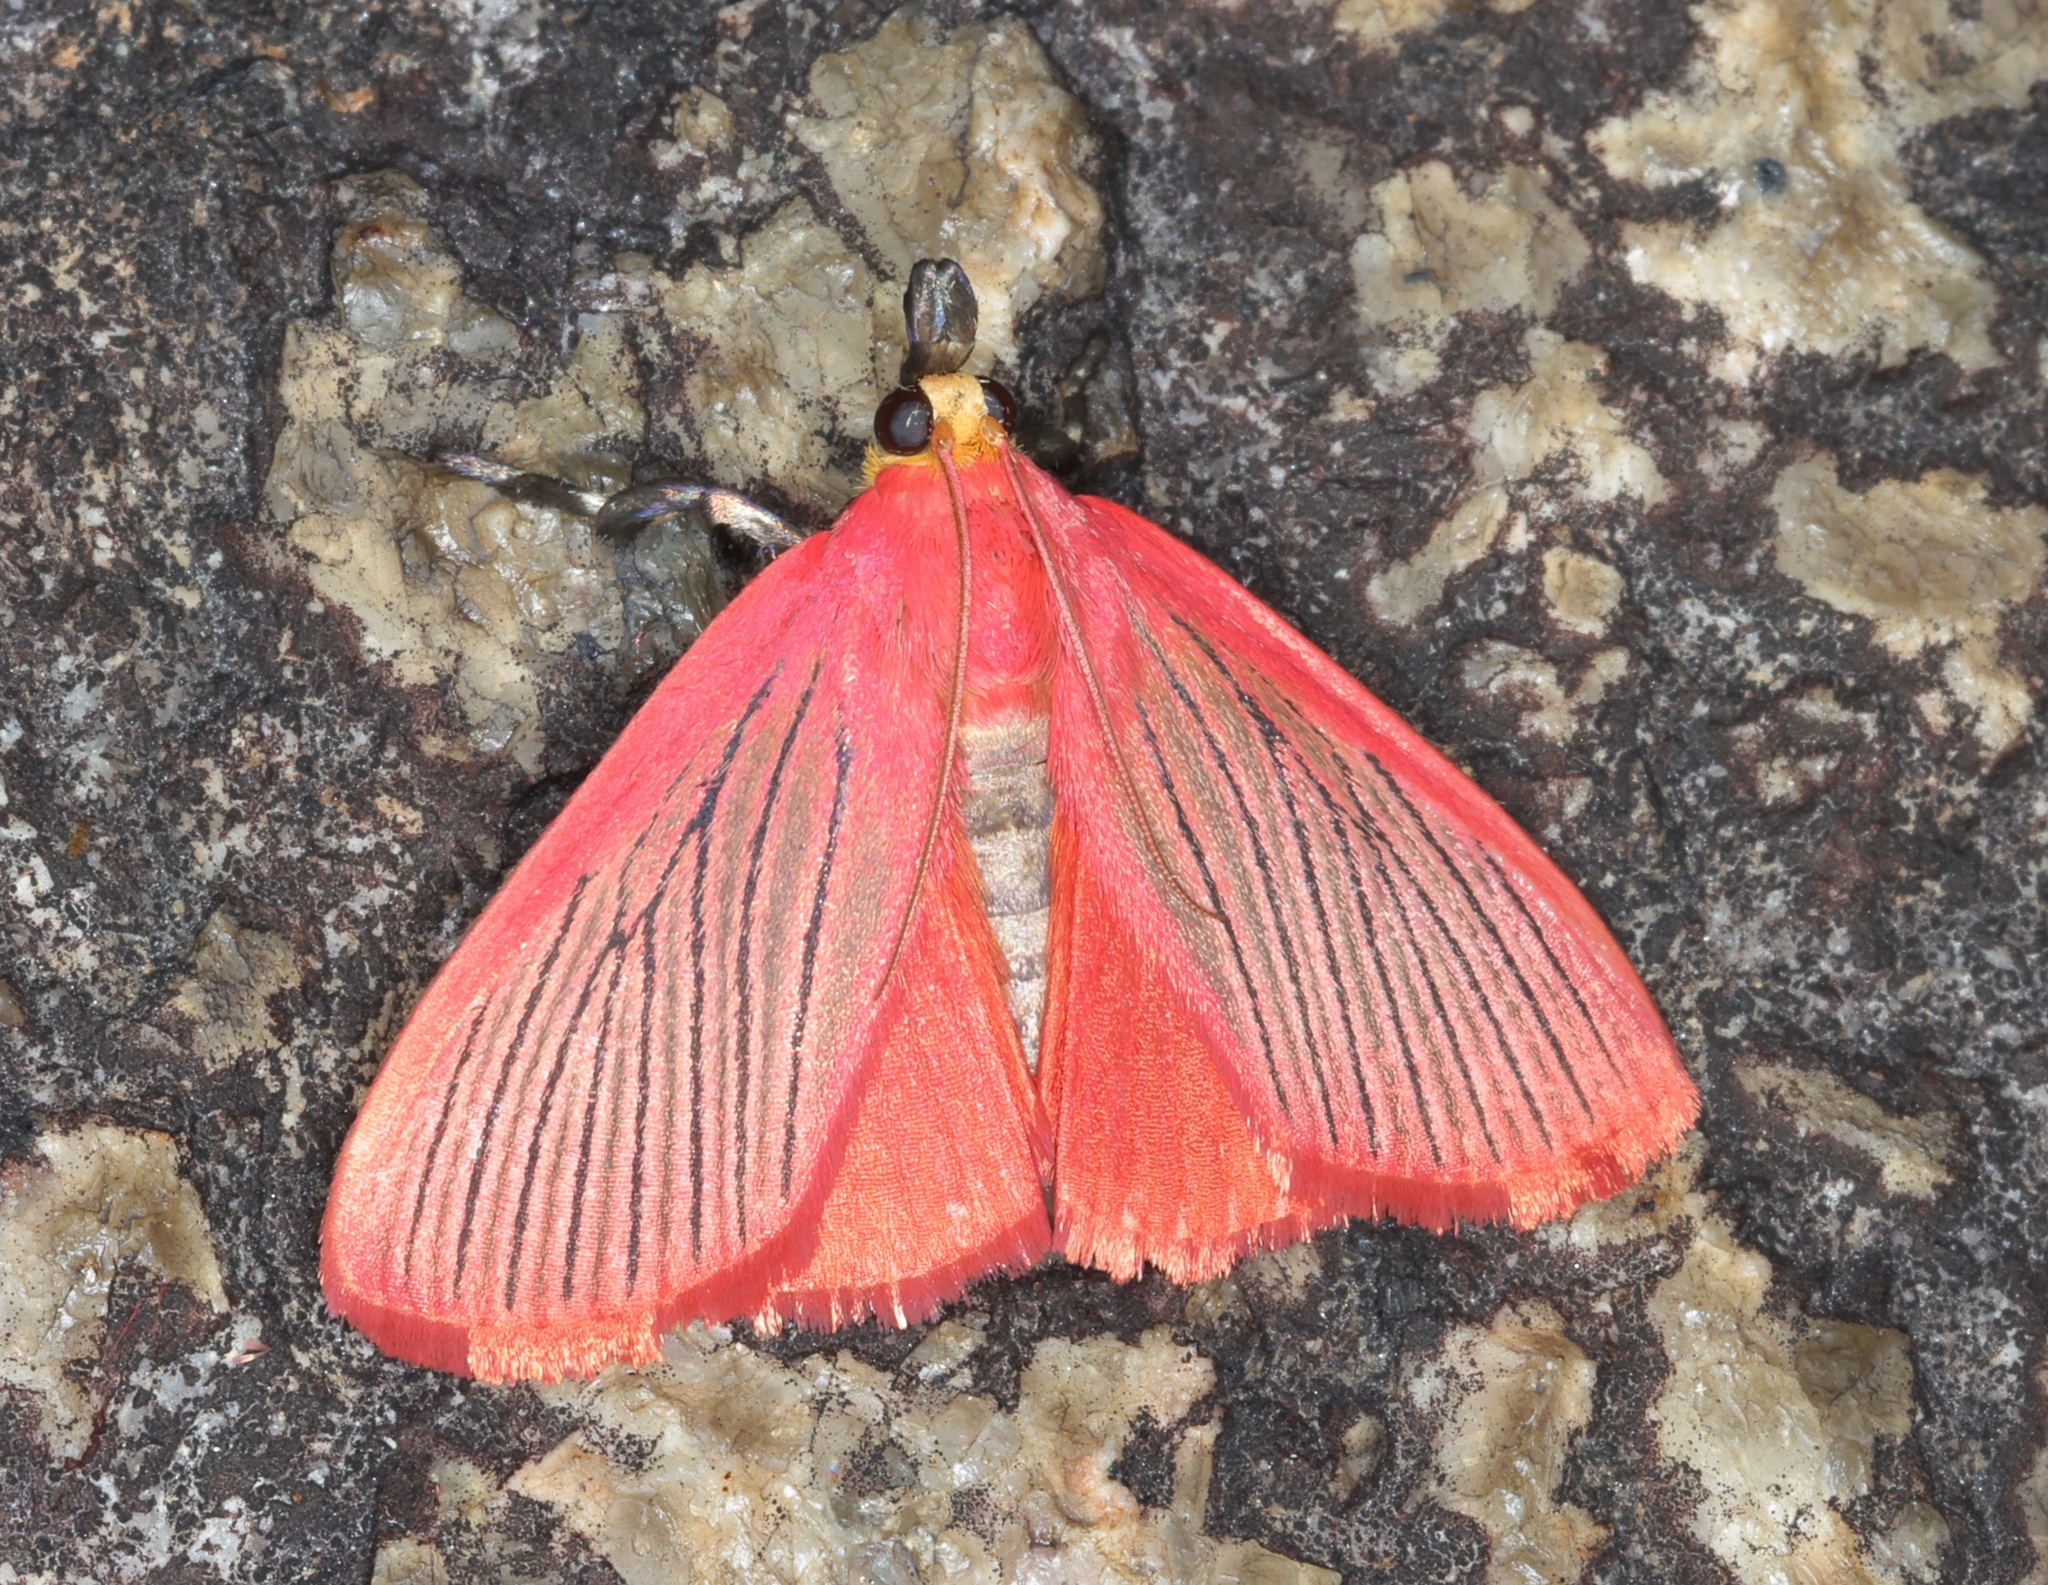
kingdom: Animalia
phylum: Arthropoda
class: Insecta
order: Lepidoptera
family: Pyralidae
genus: Arctioblepsis
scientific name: Arctioblepsis rubida
